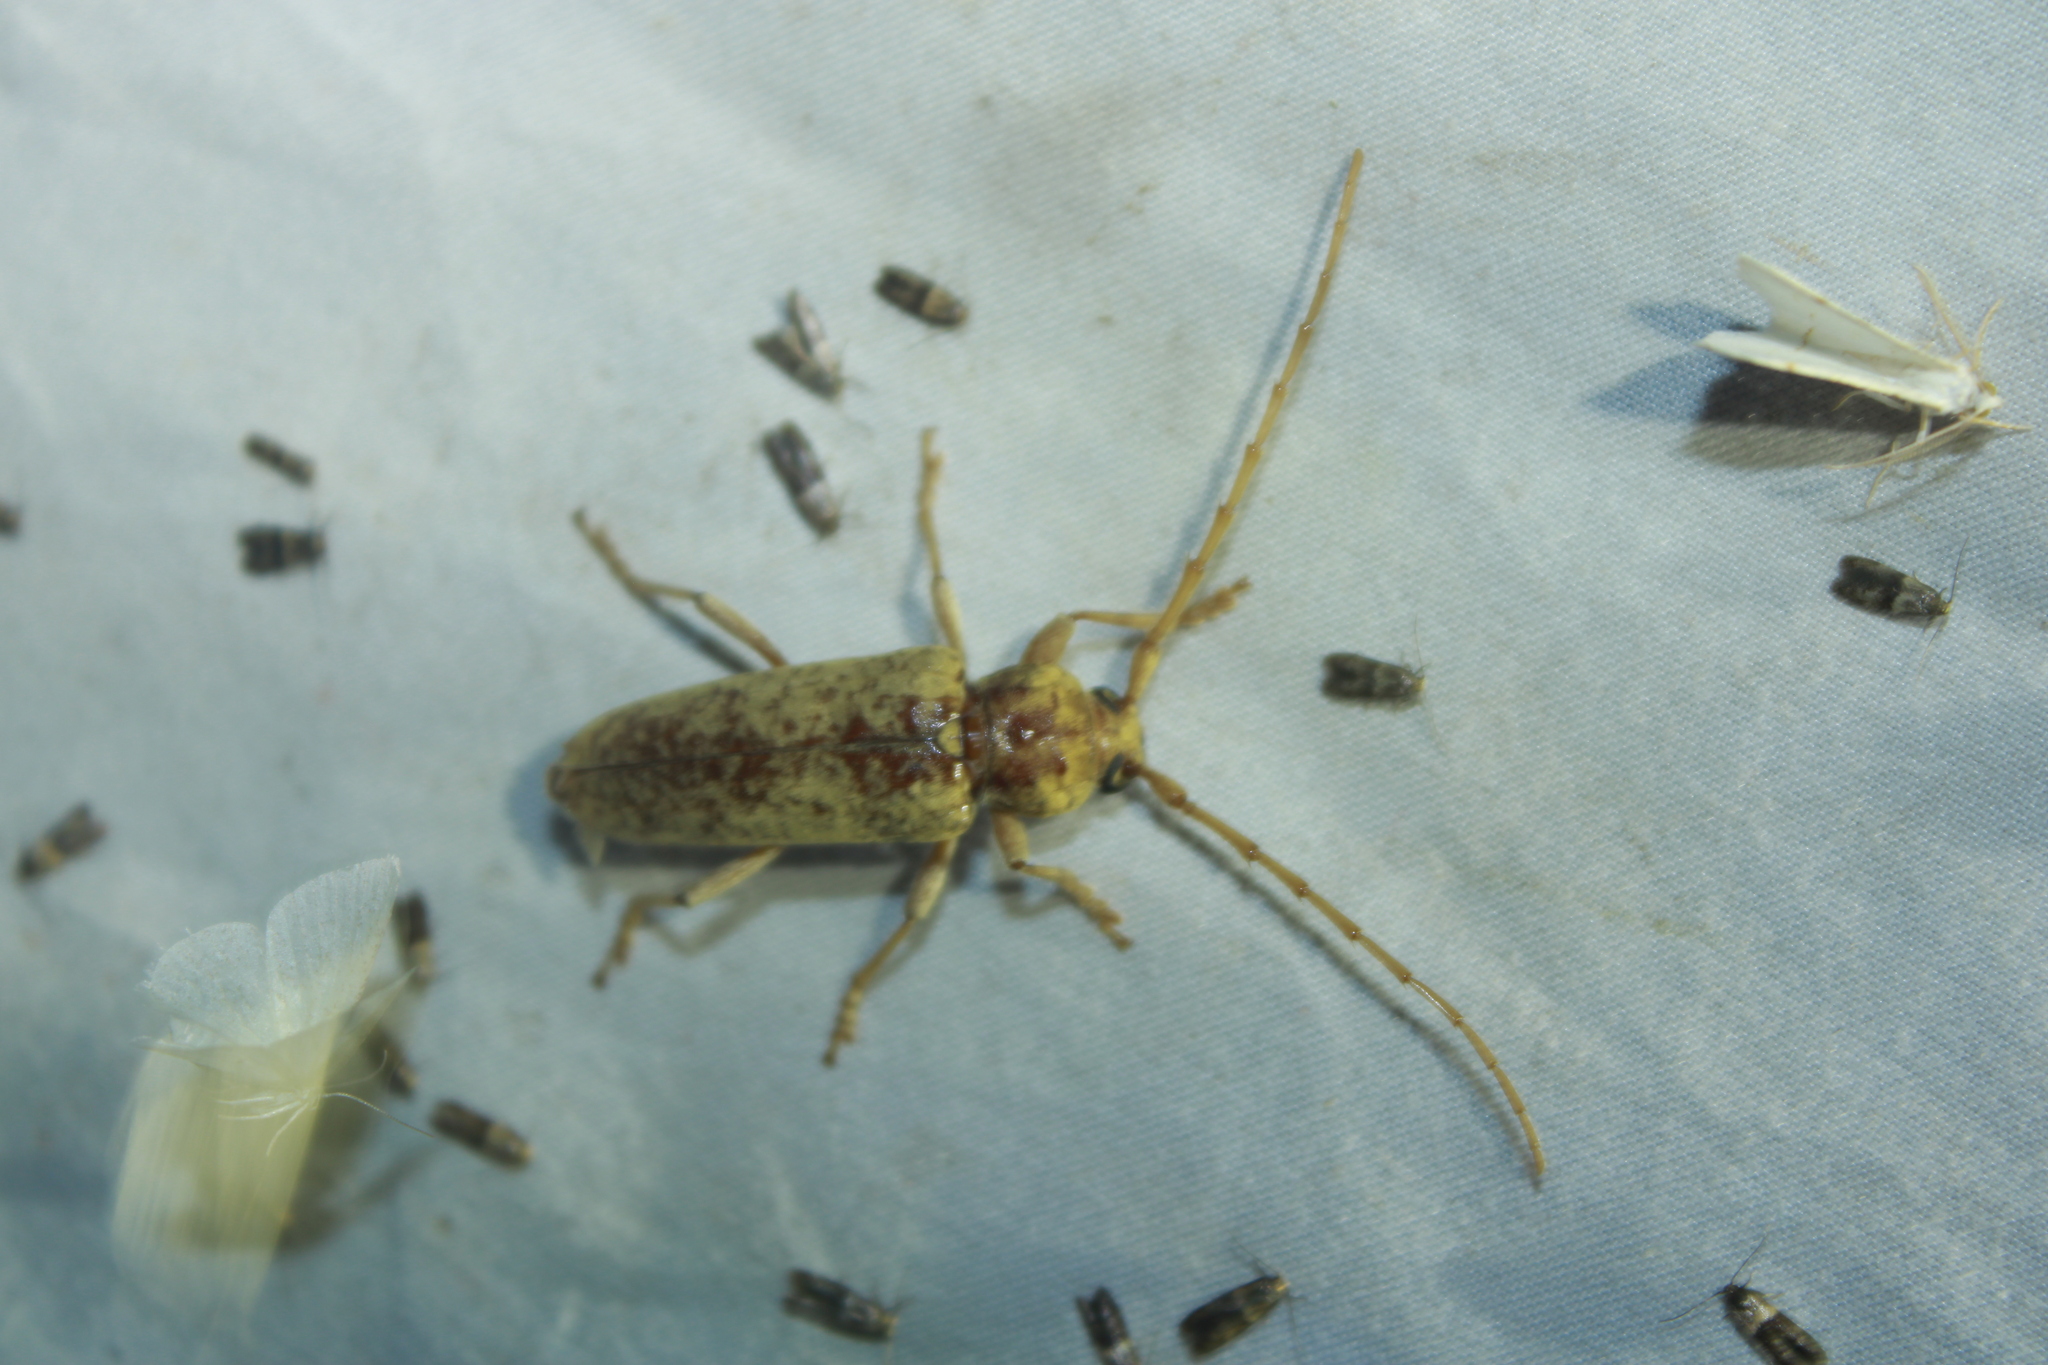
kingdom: Animalia
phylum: Arthropoda
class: Insecta
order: Coleoptera
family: Cerambycidae
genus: Enaphalodes
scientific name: Enaphalodes rufulus
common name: Red oak borer
